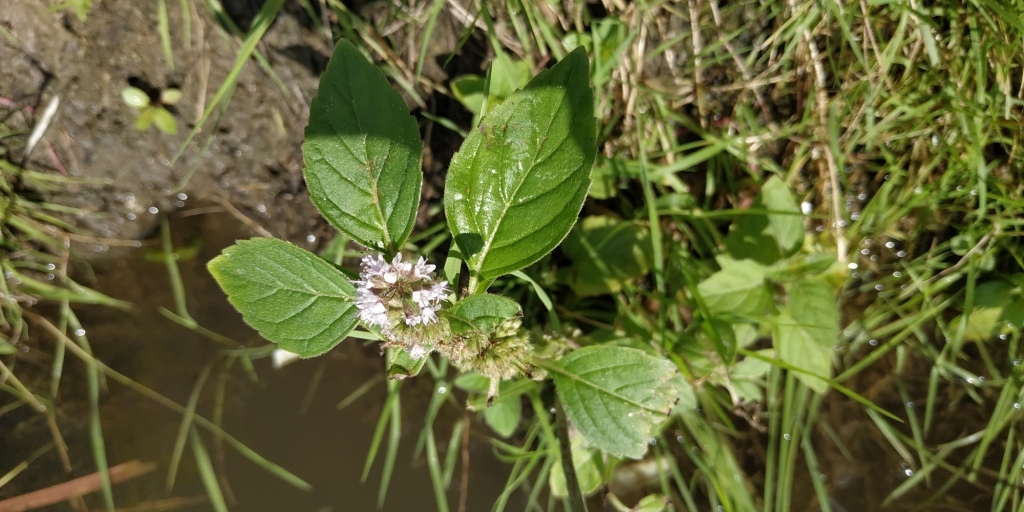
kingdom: Plantae
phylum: Tracheophyta
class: Magnoliopsida
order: Lamiales
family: Lamiaceae
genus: Mentha
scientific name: Mentha arvensis
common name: Corn mint
